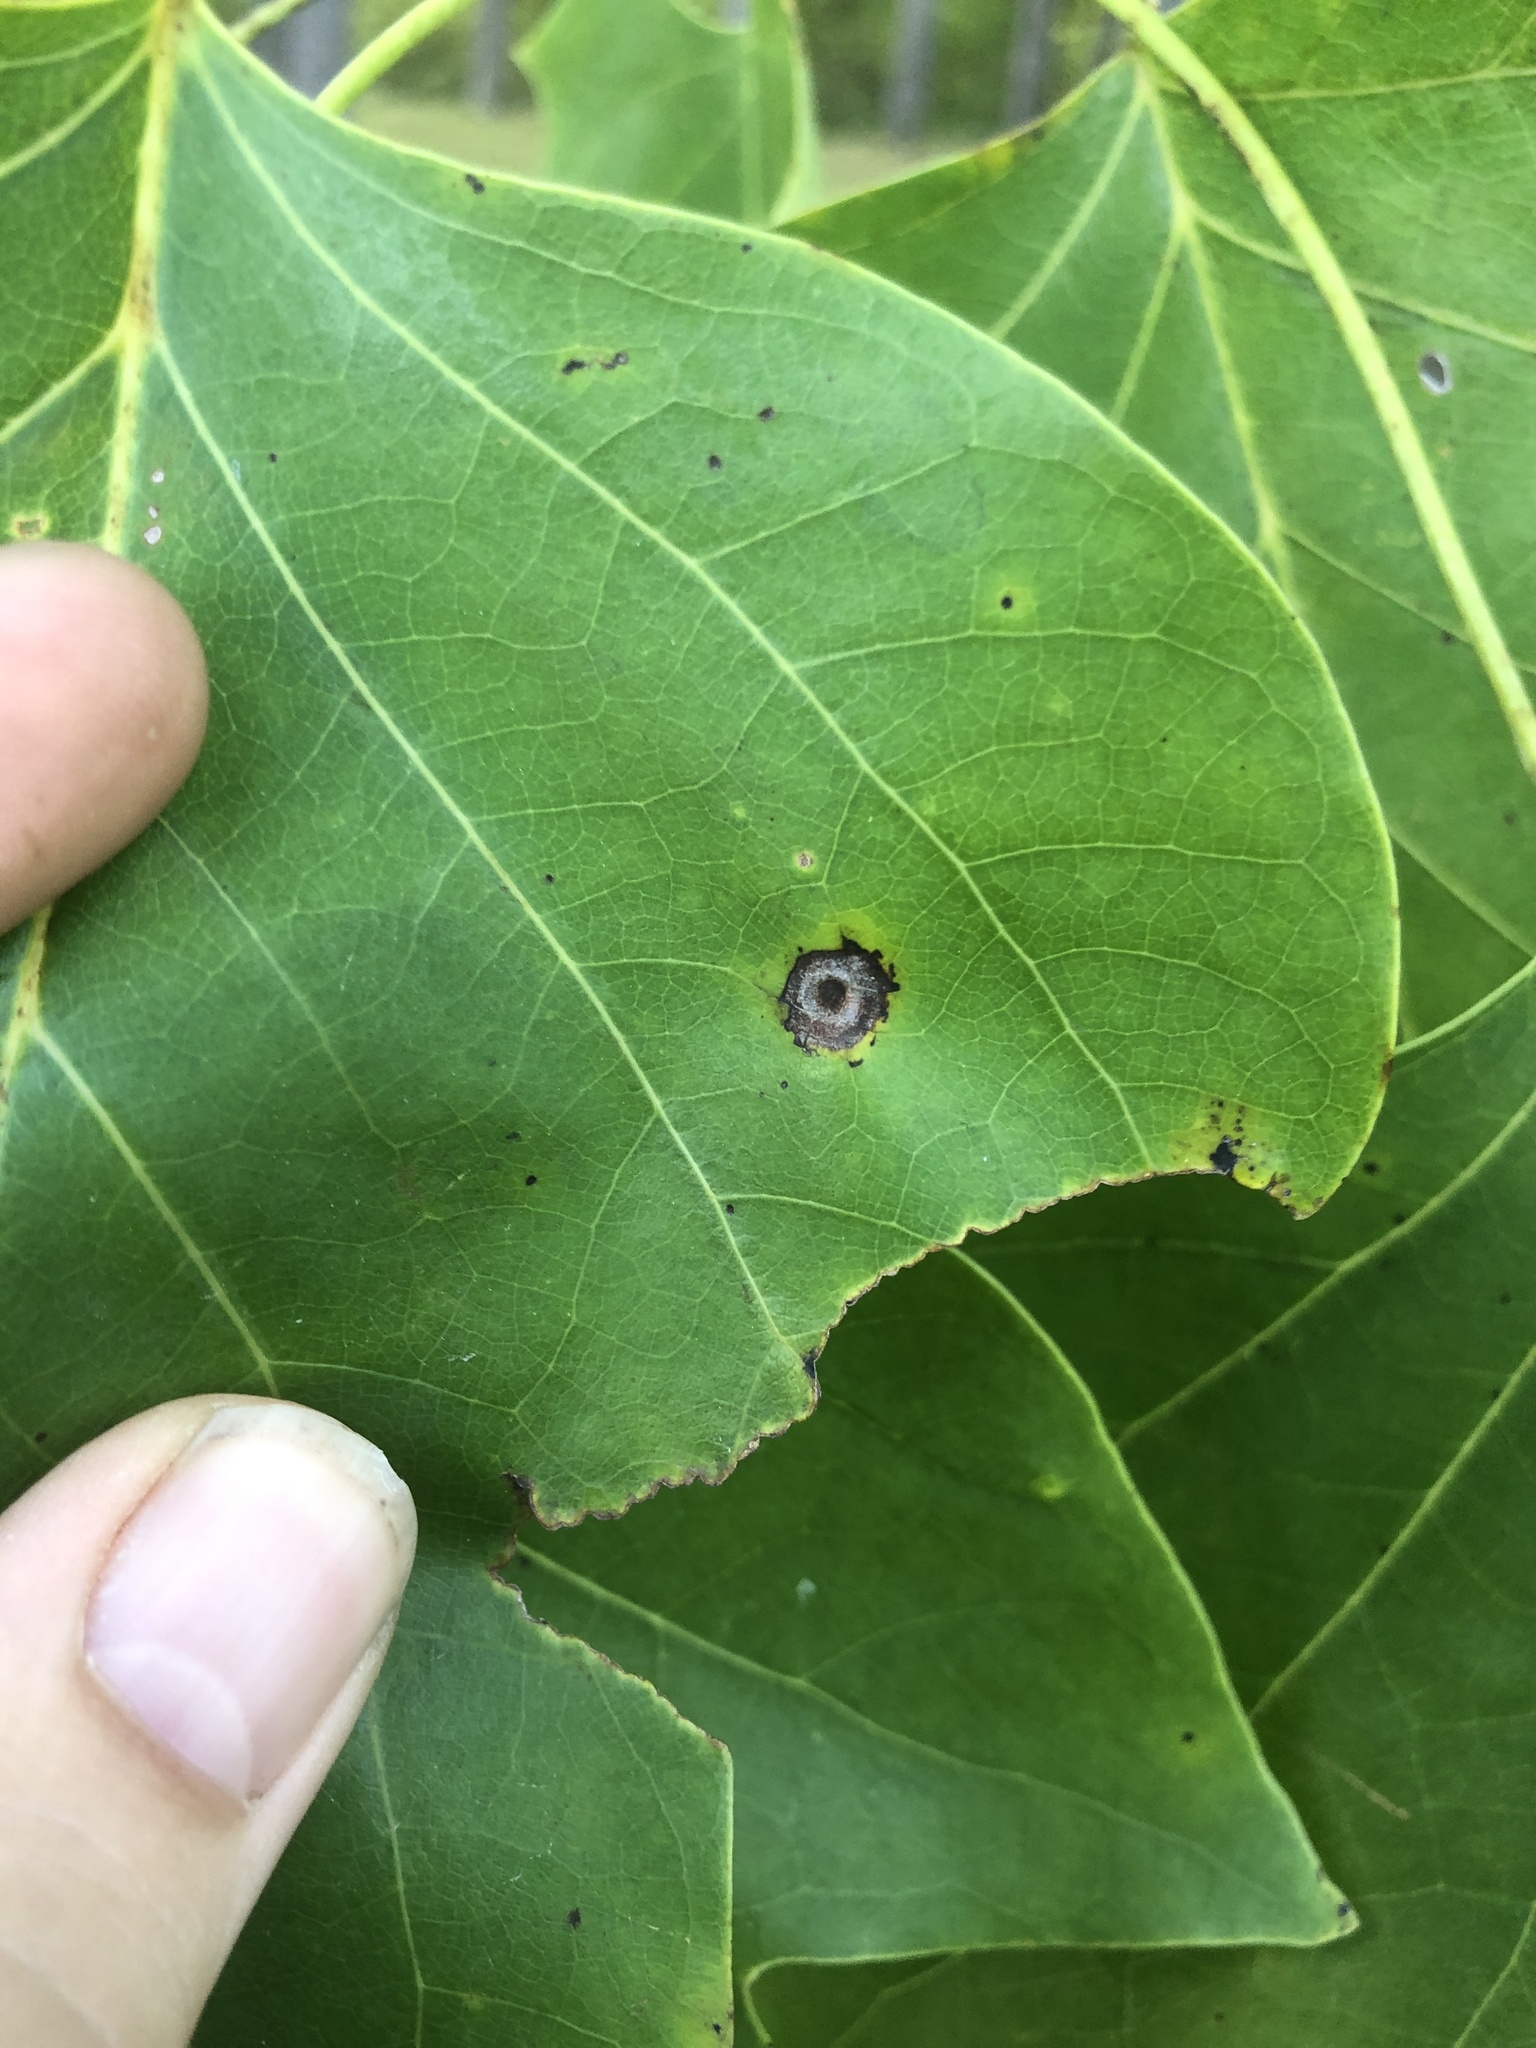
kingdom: Animalia
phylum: Arthropoda
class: Insecta
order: Diptera
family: Cecidomyiidae
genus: Resseliella
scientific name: Resseliella liriodendri
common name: Tulip tree leaf spot gall midge
